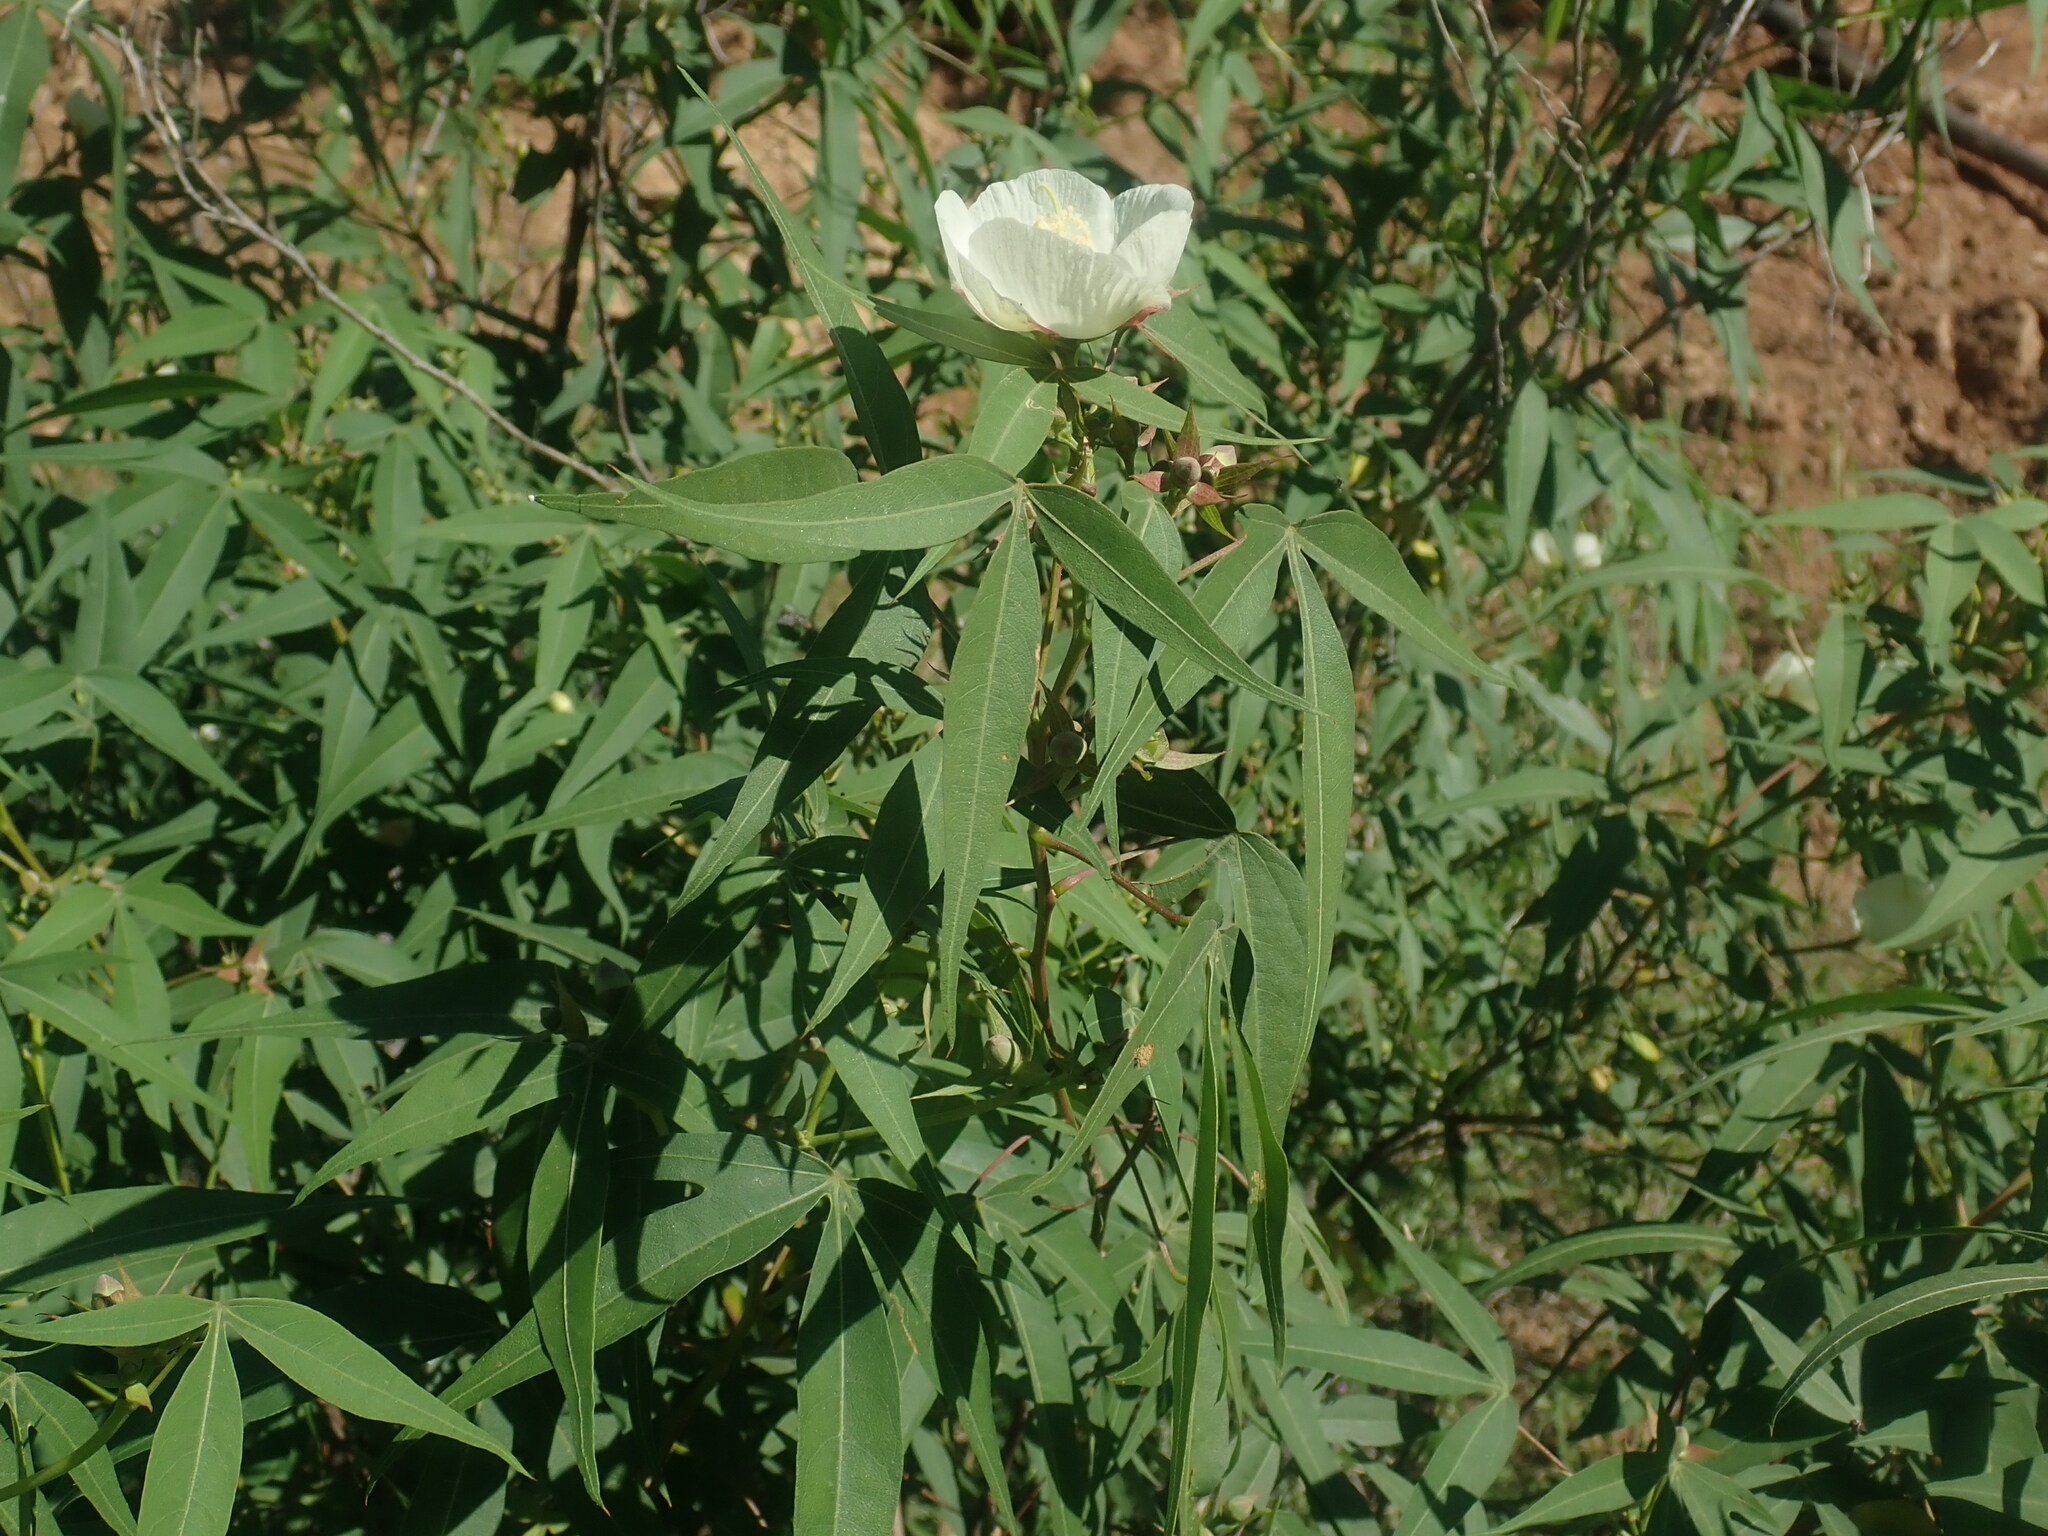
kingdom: Plantae
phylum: Tracheophyta
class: Magnoliopsida
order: Malvales
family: Malvaceae
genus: Gossypium
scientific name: Gossypium thurberi
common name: Desert cotton
